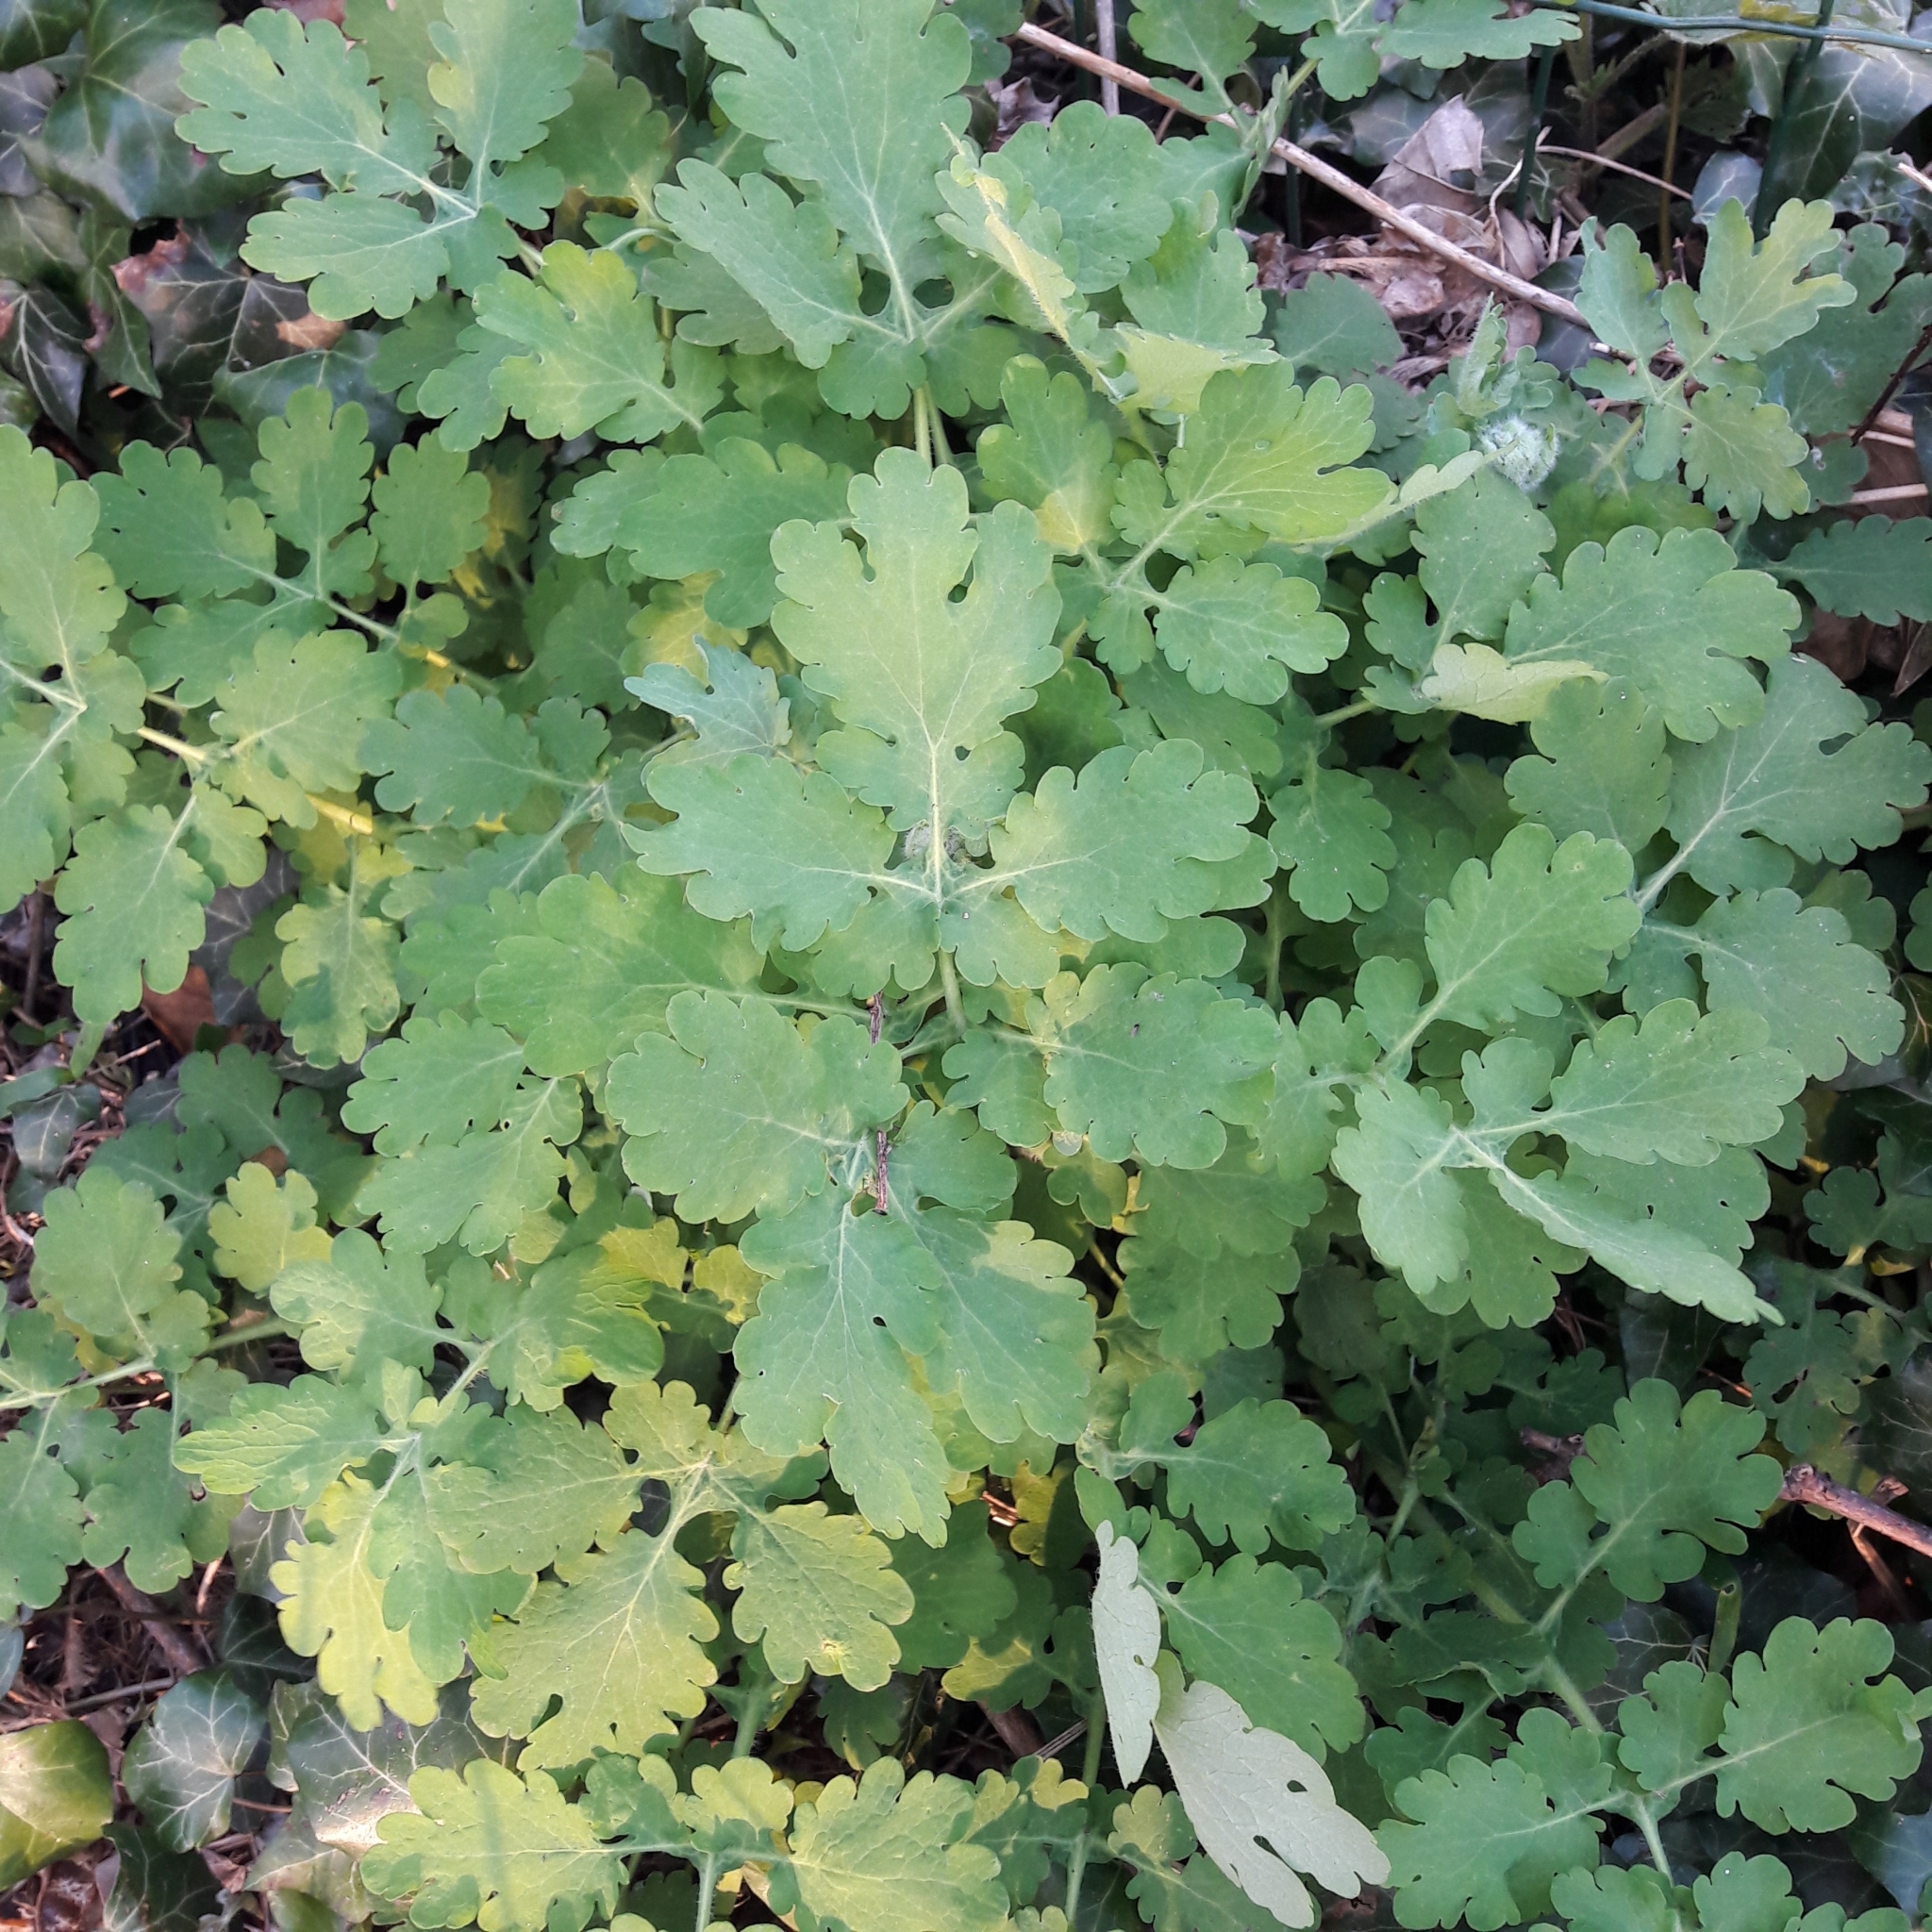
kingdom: Plantae
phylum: Tracheophyta
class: Magnoliopsida
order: Ranunculales
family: Papaveraceae
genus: Chelidonium
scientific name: Chelidonium majus
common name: Greater celandine
